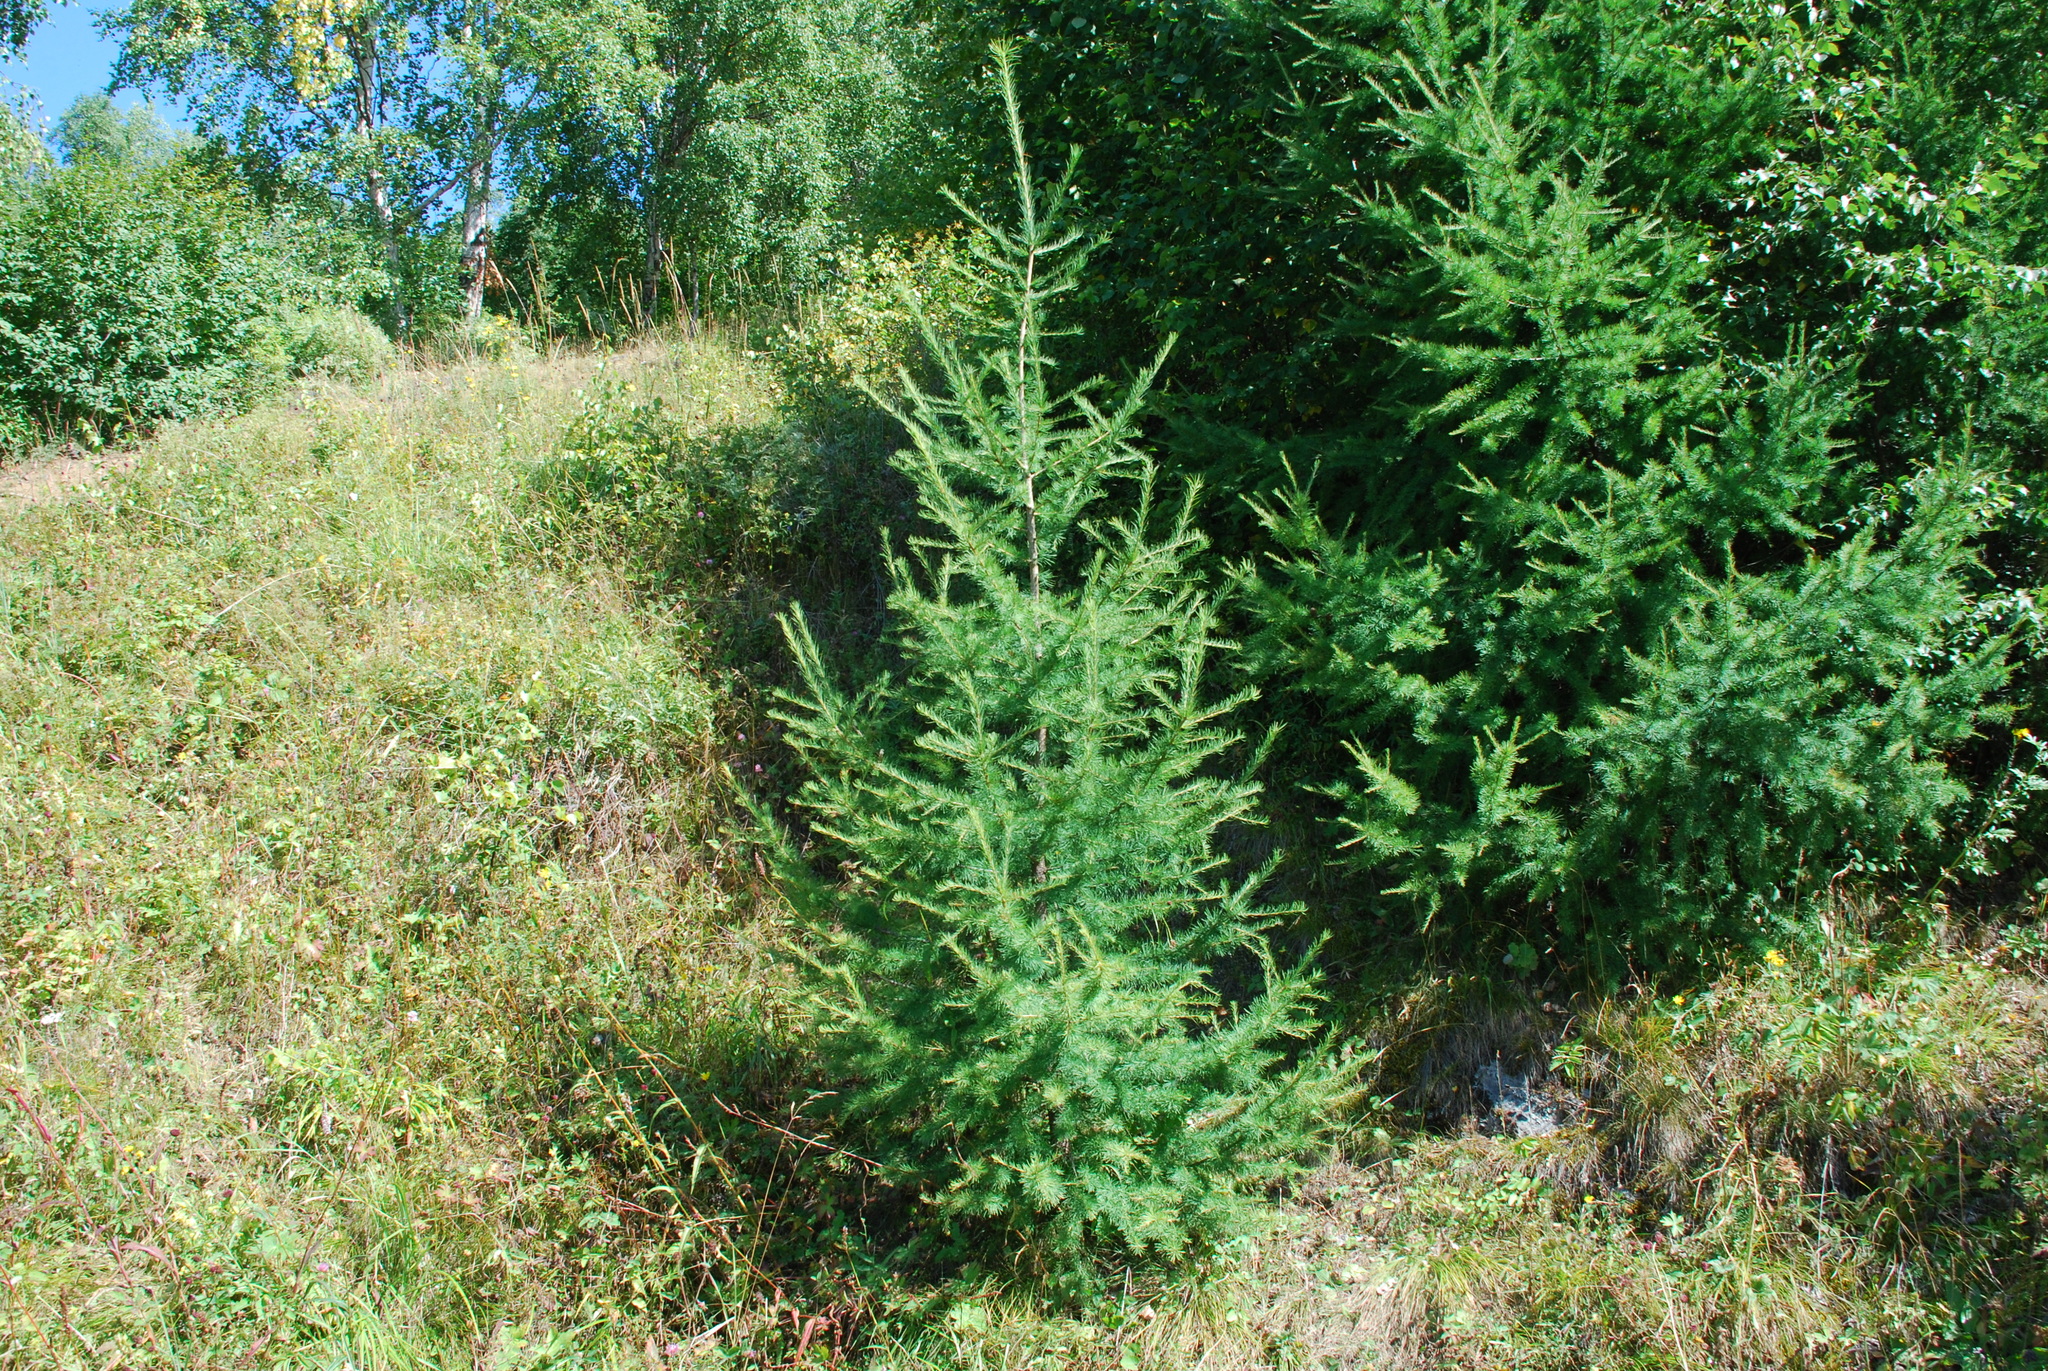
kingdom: Plantae
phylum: Tracheophyta
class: Pinopsida
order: Pinales
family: Pinaceae
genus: Larix
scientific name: Larix sibirica
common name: Siberian larch
